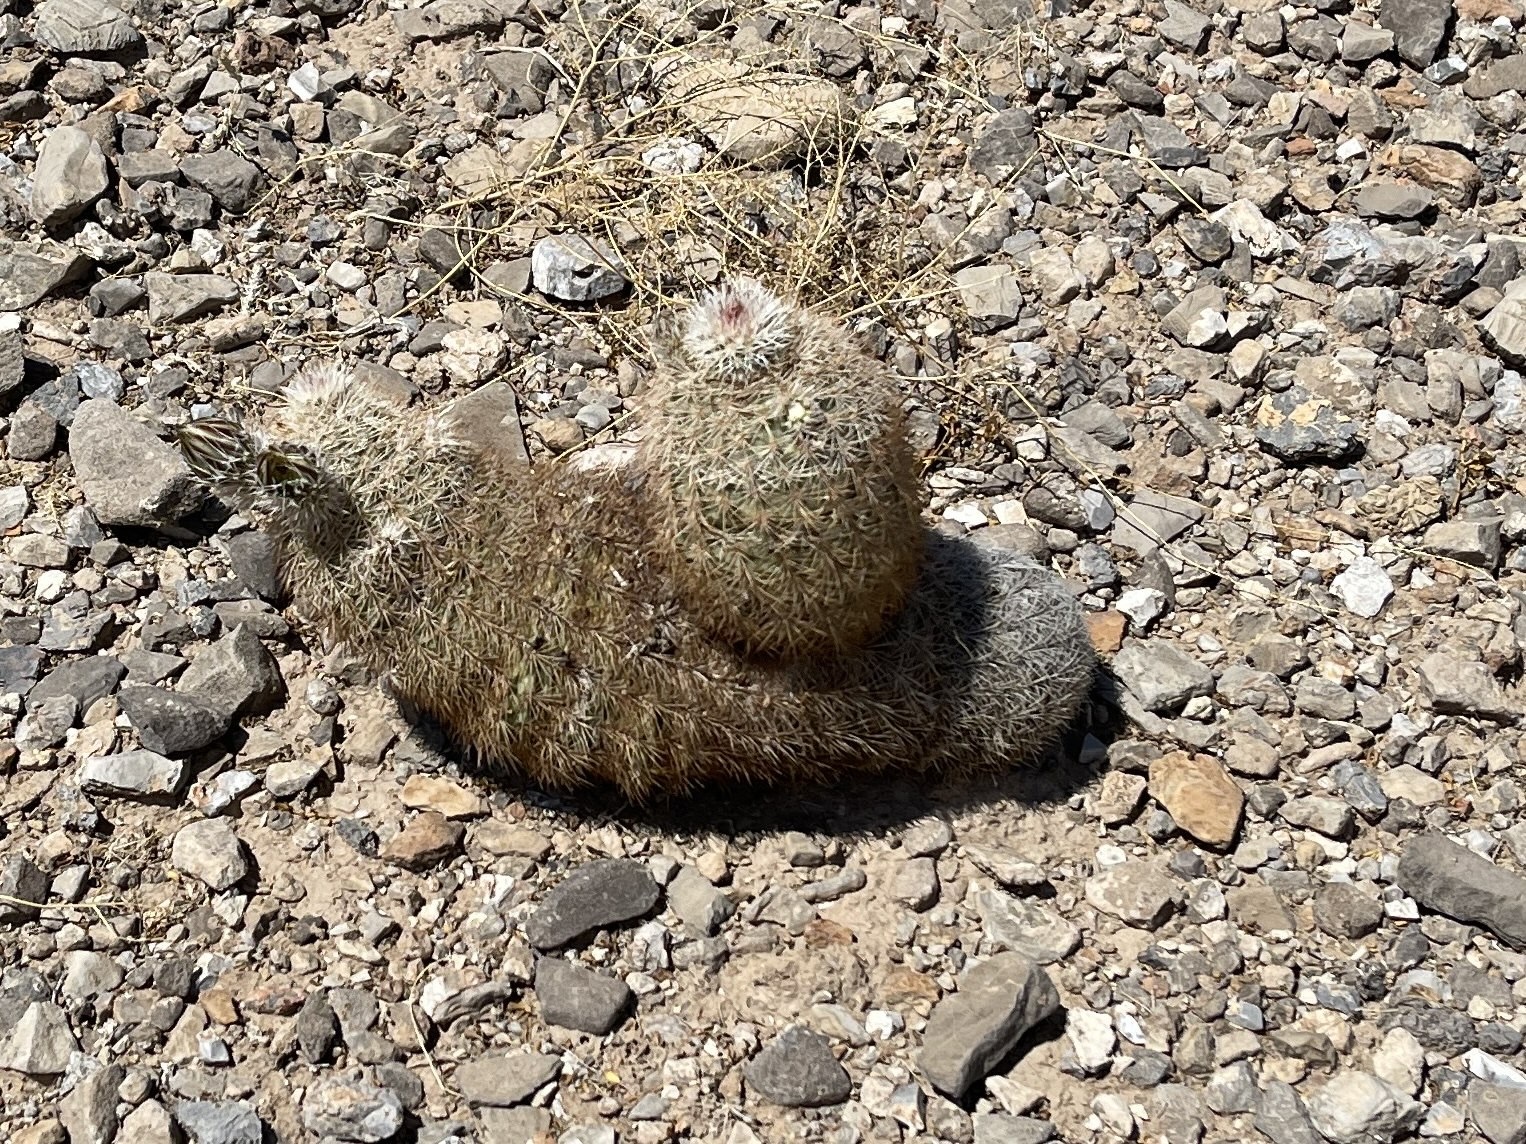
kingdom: Plantae
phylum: Tracheophyta
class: Magnoliopsida
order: Caryophyllales
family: Cactaceae
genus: Echinocereus
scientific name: Echinocereus dasyacanthus
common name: Spiny hedgehog cactus
